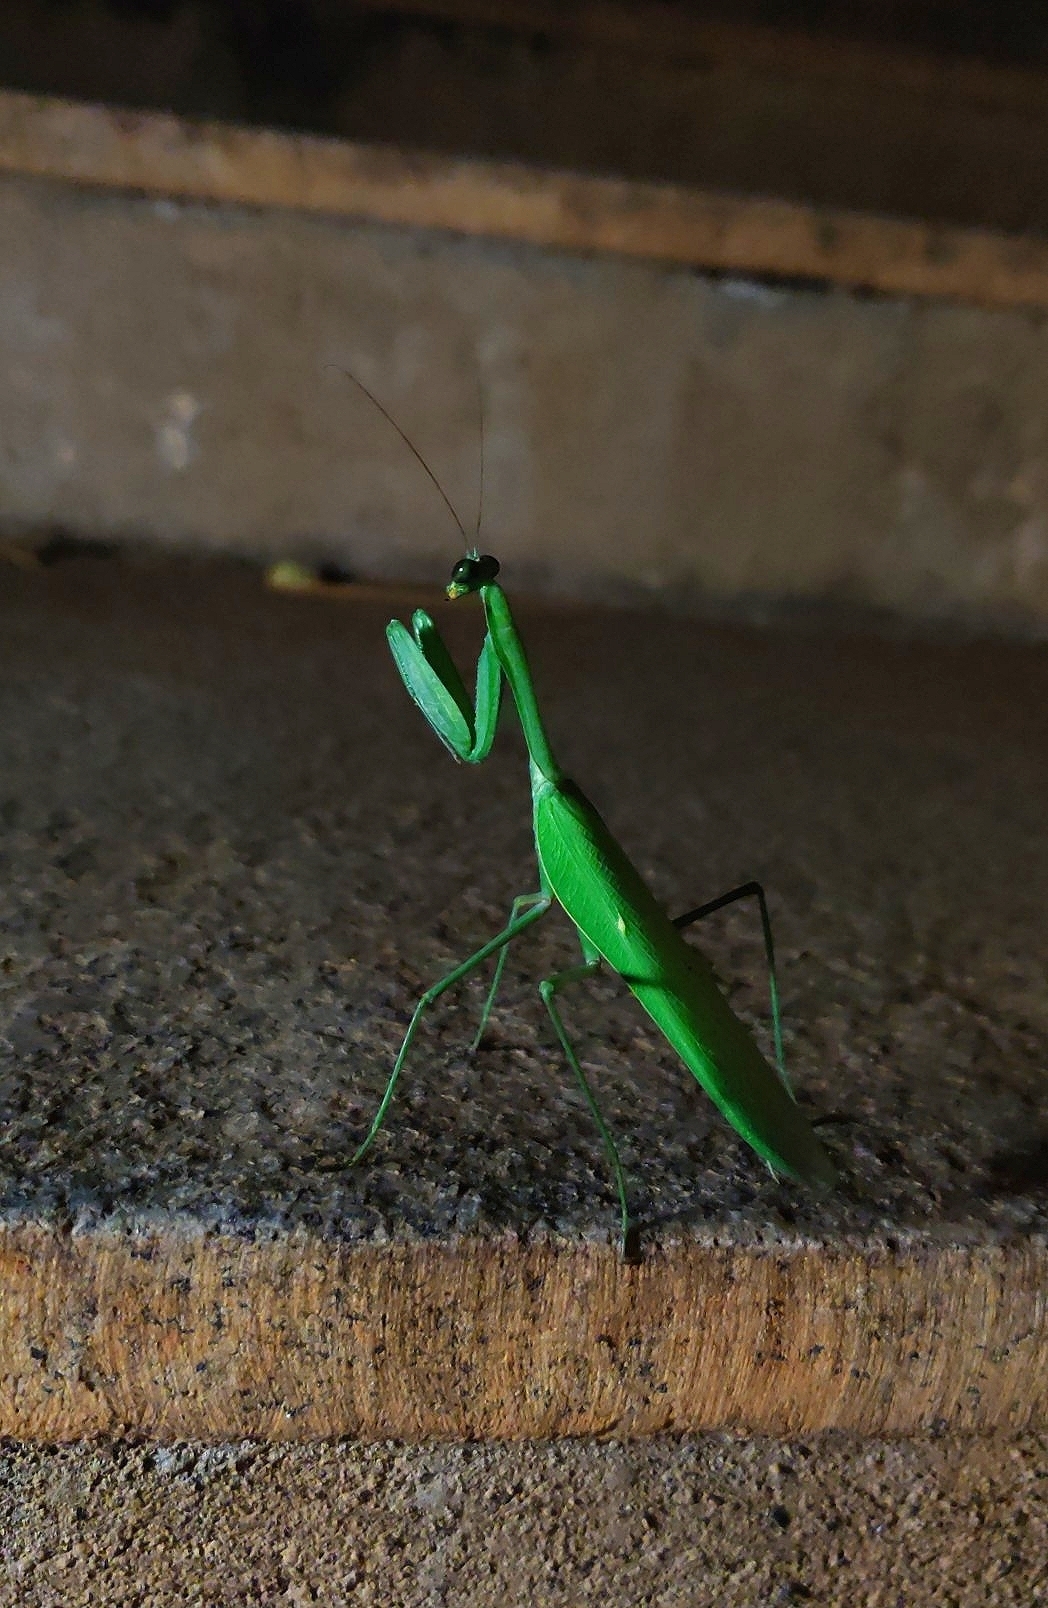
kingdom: Animalia
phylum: Arthropoda
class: Insecta
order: Mantodea
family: Mantidae
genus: Hierodula
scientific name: Hierodula membranacea
